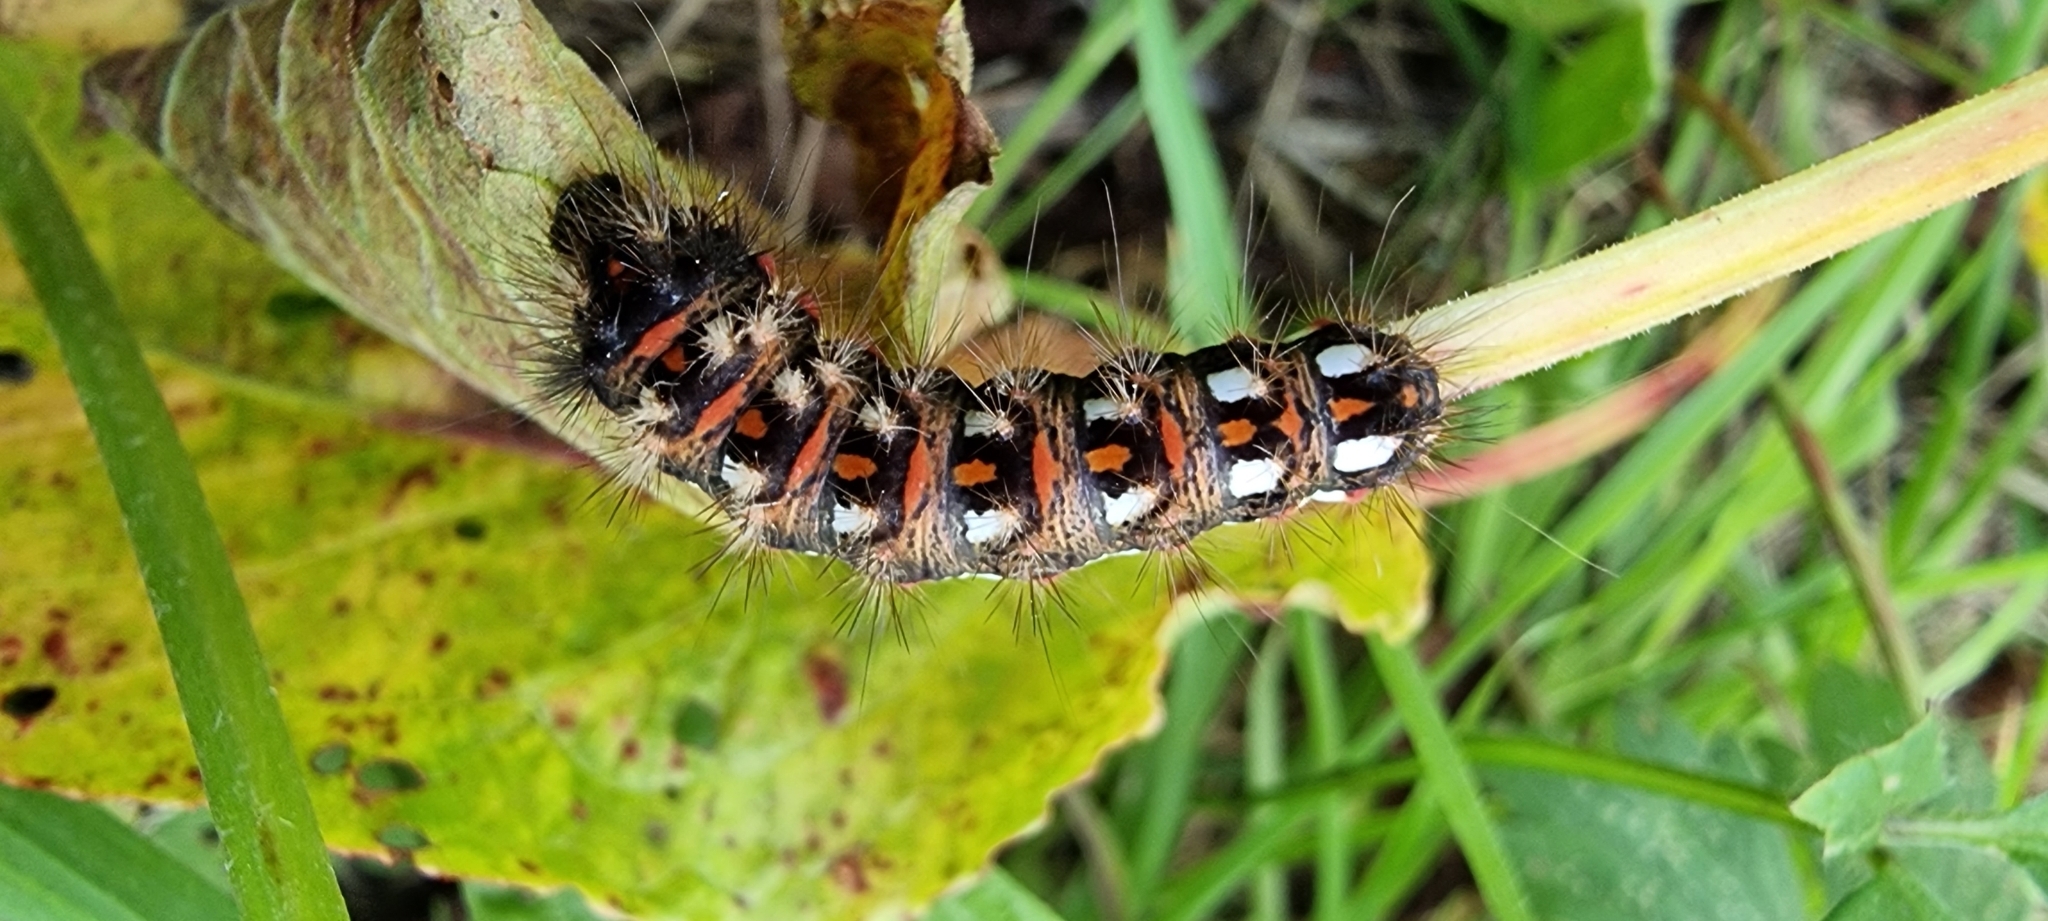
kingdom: Animalia
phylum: Arthropoda
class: Insecta
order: Lepidoptera
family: Noctuidae
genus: Acronicta
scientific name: Acronicta rumicis
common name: Knot grass
